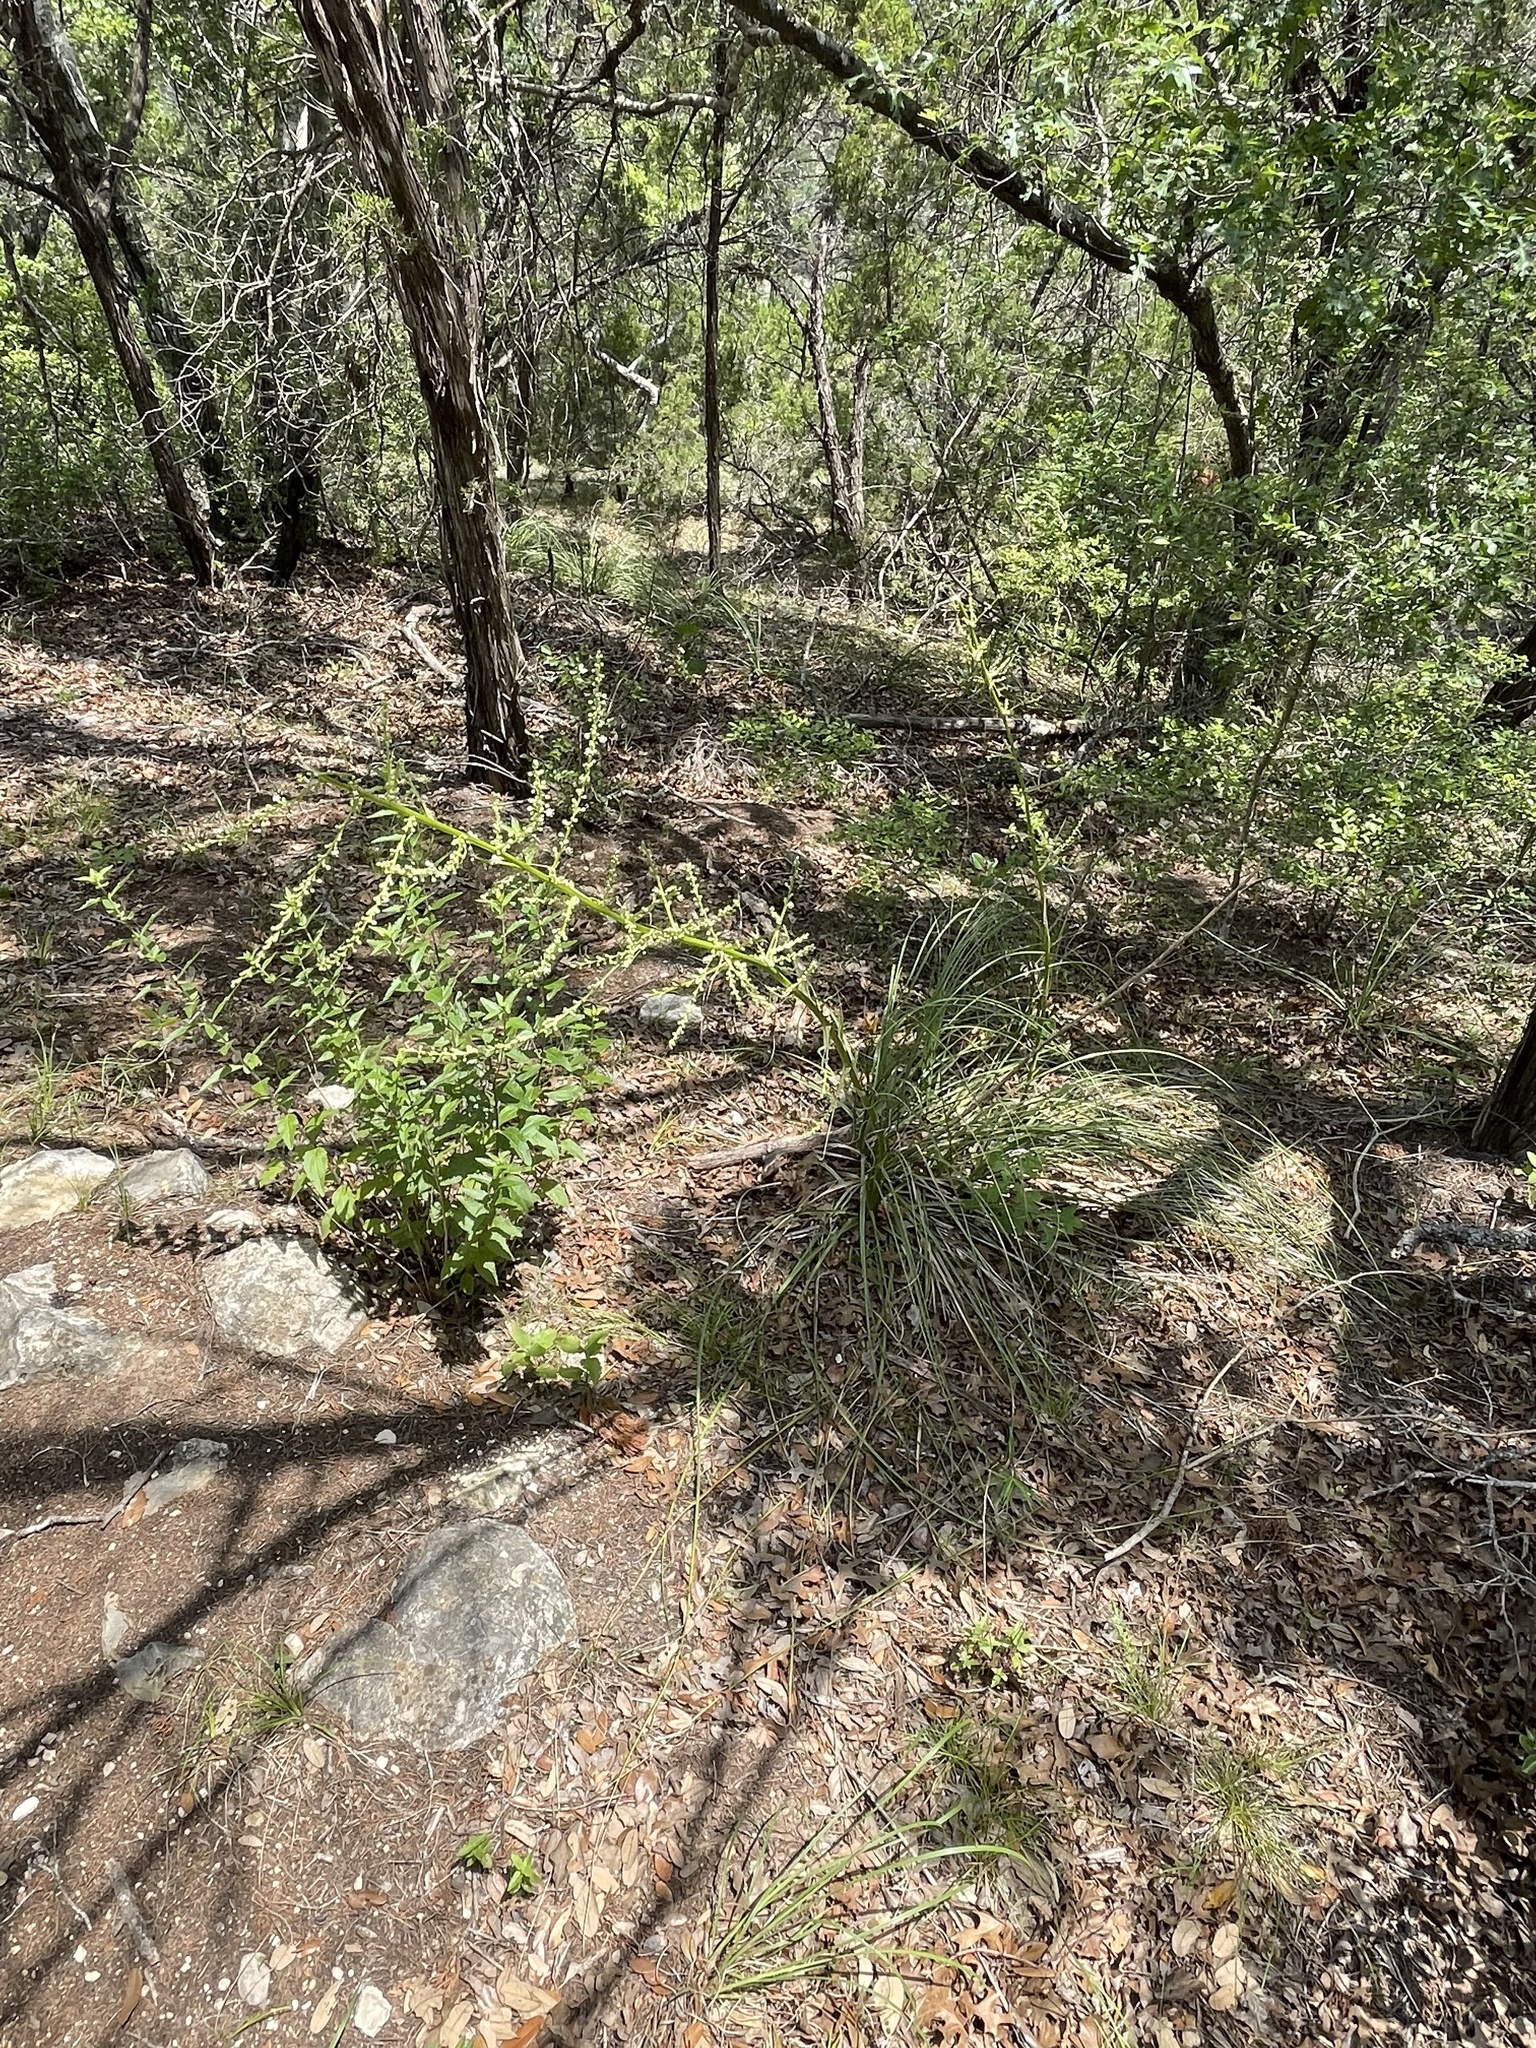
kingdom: Plantae
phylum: Tracheophyta
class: Liliopsida
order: Asparagales
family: Asparagaceae
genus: Nolina
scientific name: Nolina lindheimeriana
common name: Lindheimer's bear-grass
